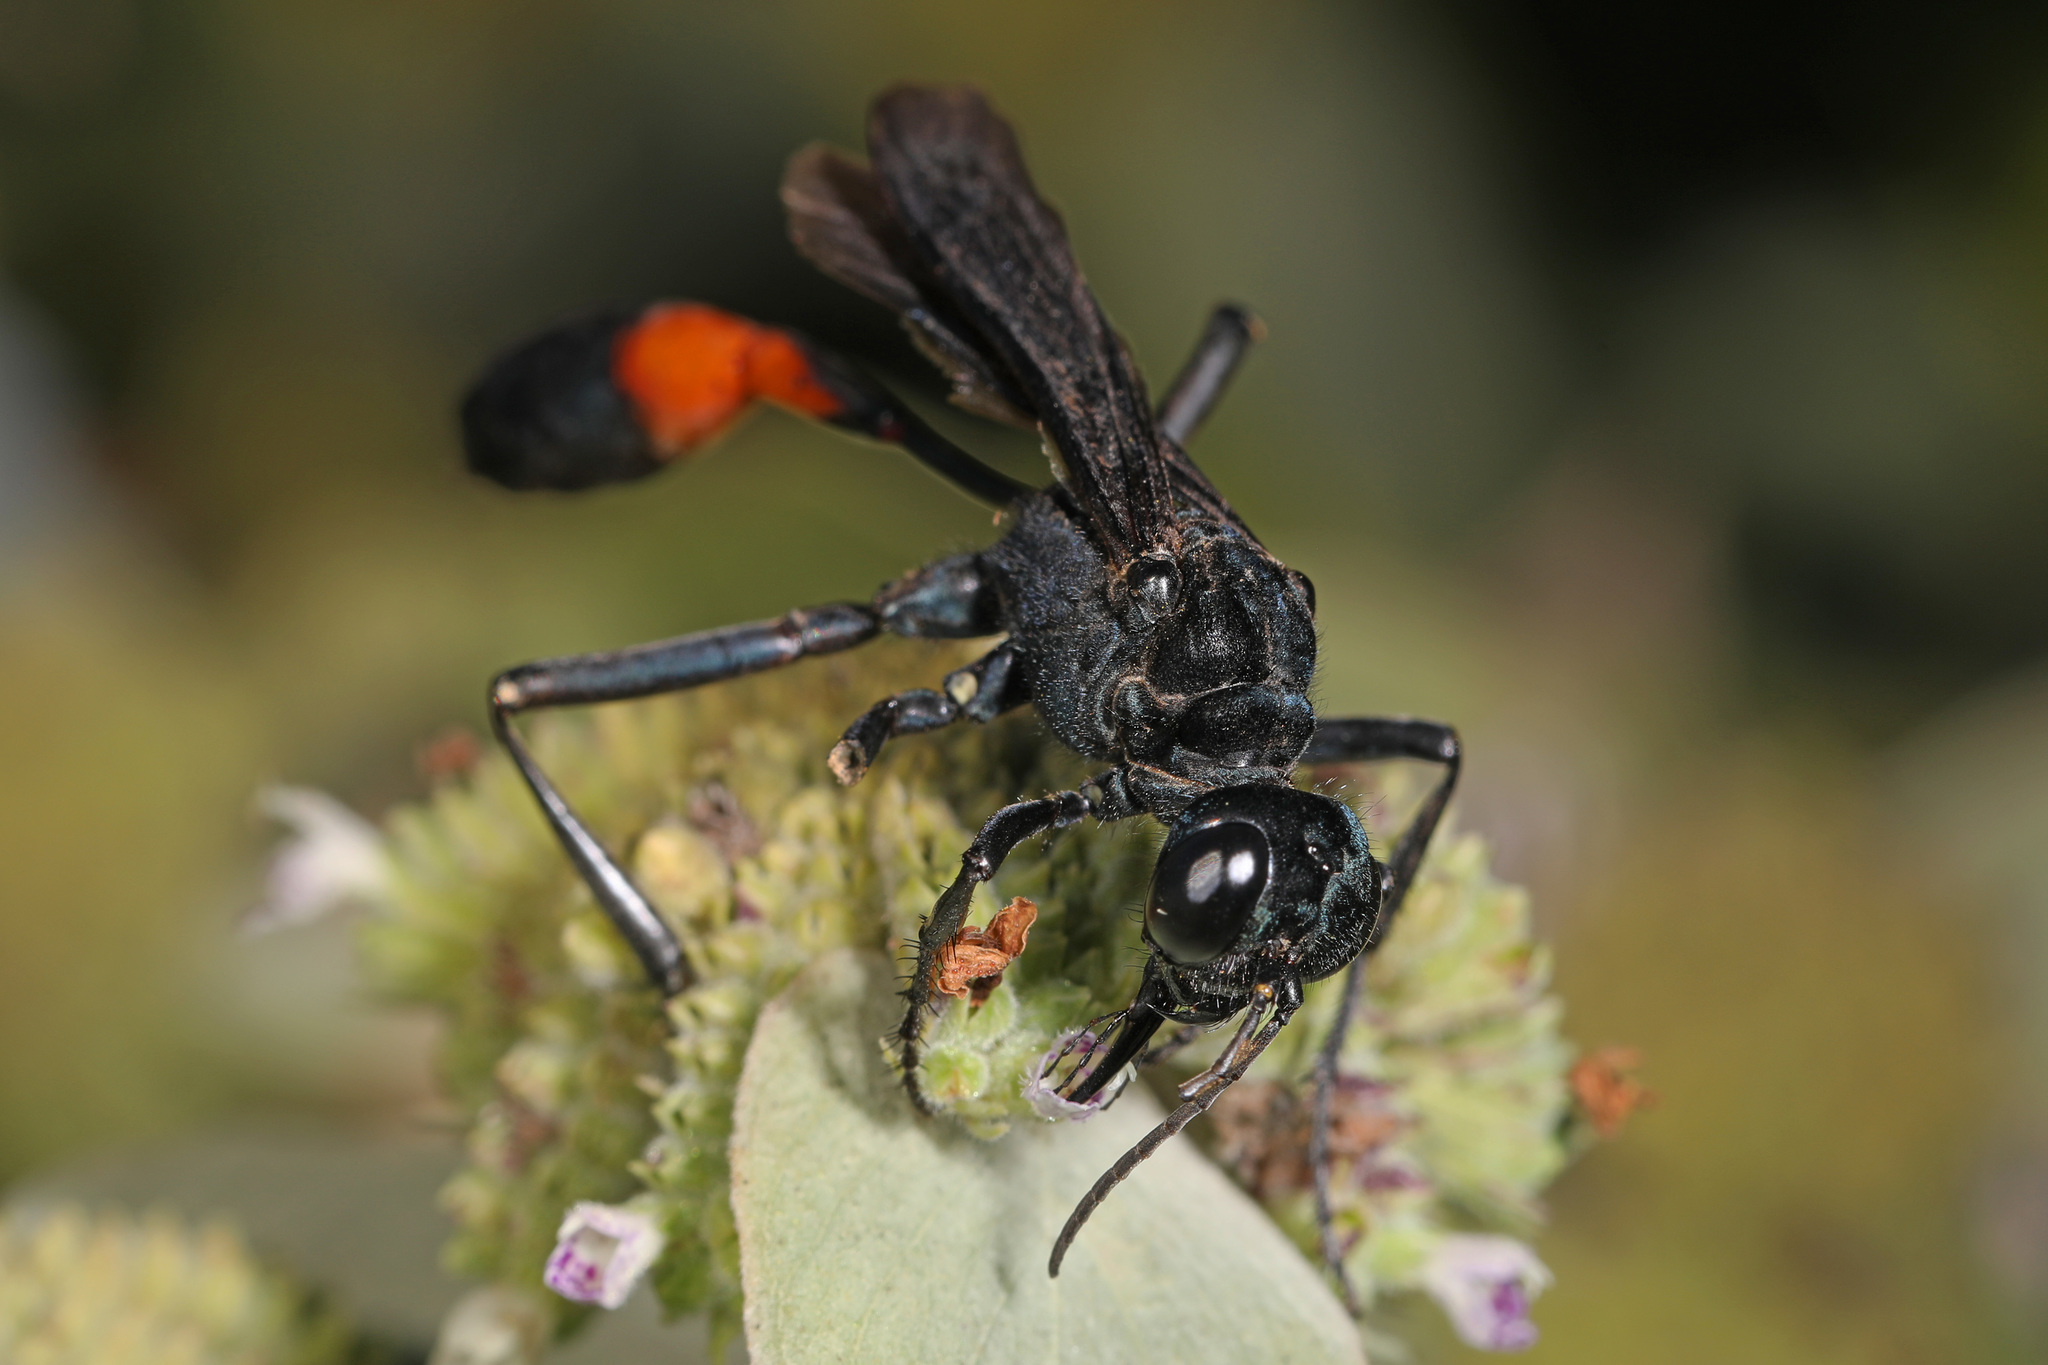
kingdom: Animalia
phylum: Arthropoda
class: Insecta
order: Hymenoptera
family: Sphecidae
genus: Ammophila
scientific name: Ammophila nigricans
